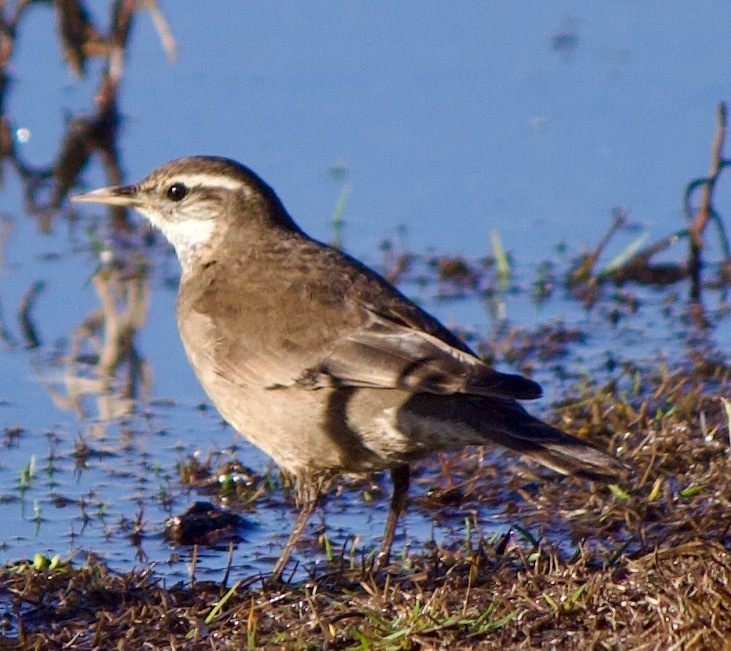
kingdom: Animalia
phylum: Chordata
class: Aves
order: Passeriformes
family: Furnariidae
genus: Cinclodes
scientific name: Cinclodes fuscus
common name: Buff-winged cinclodes
